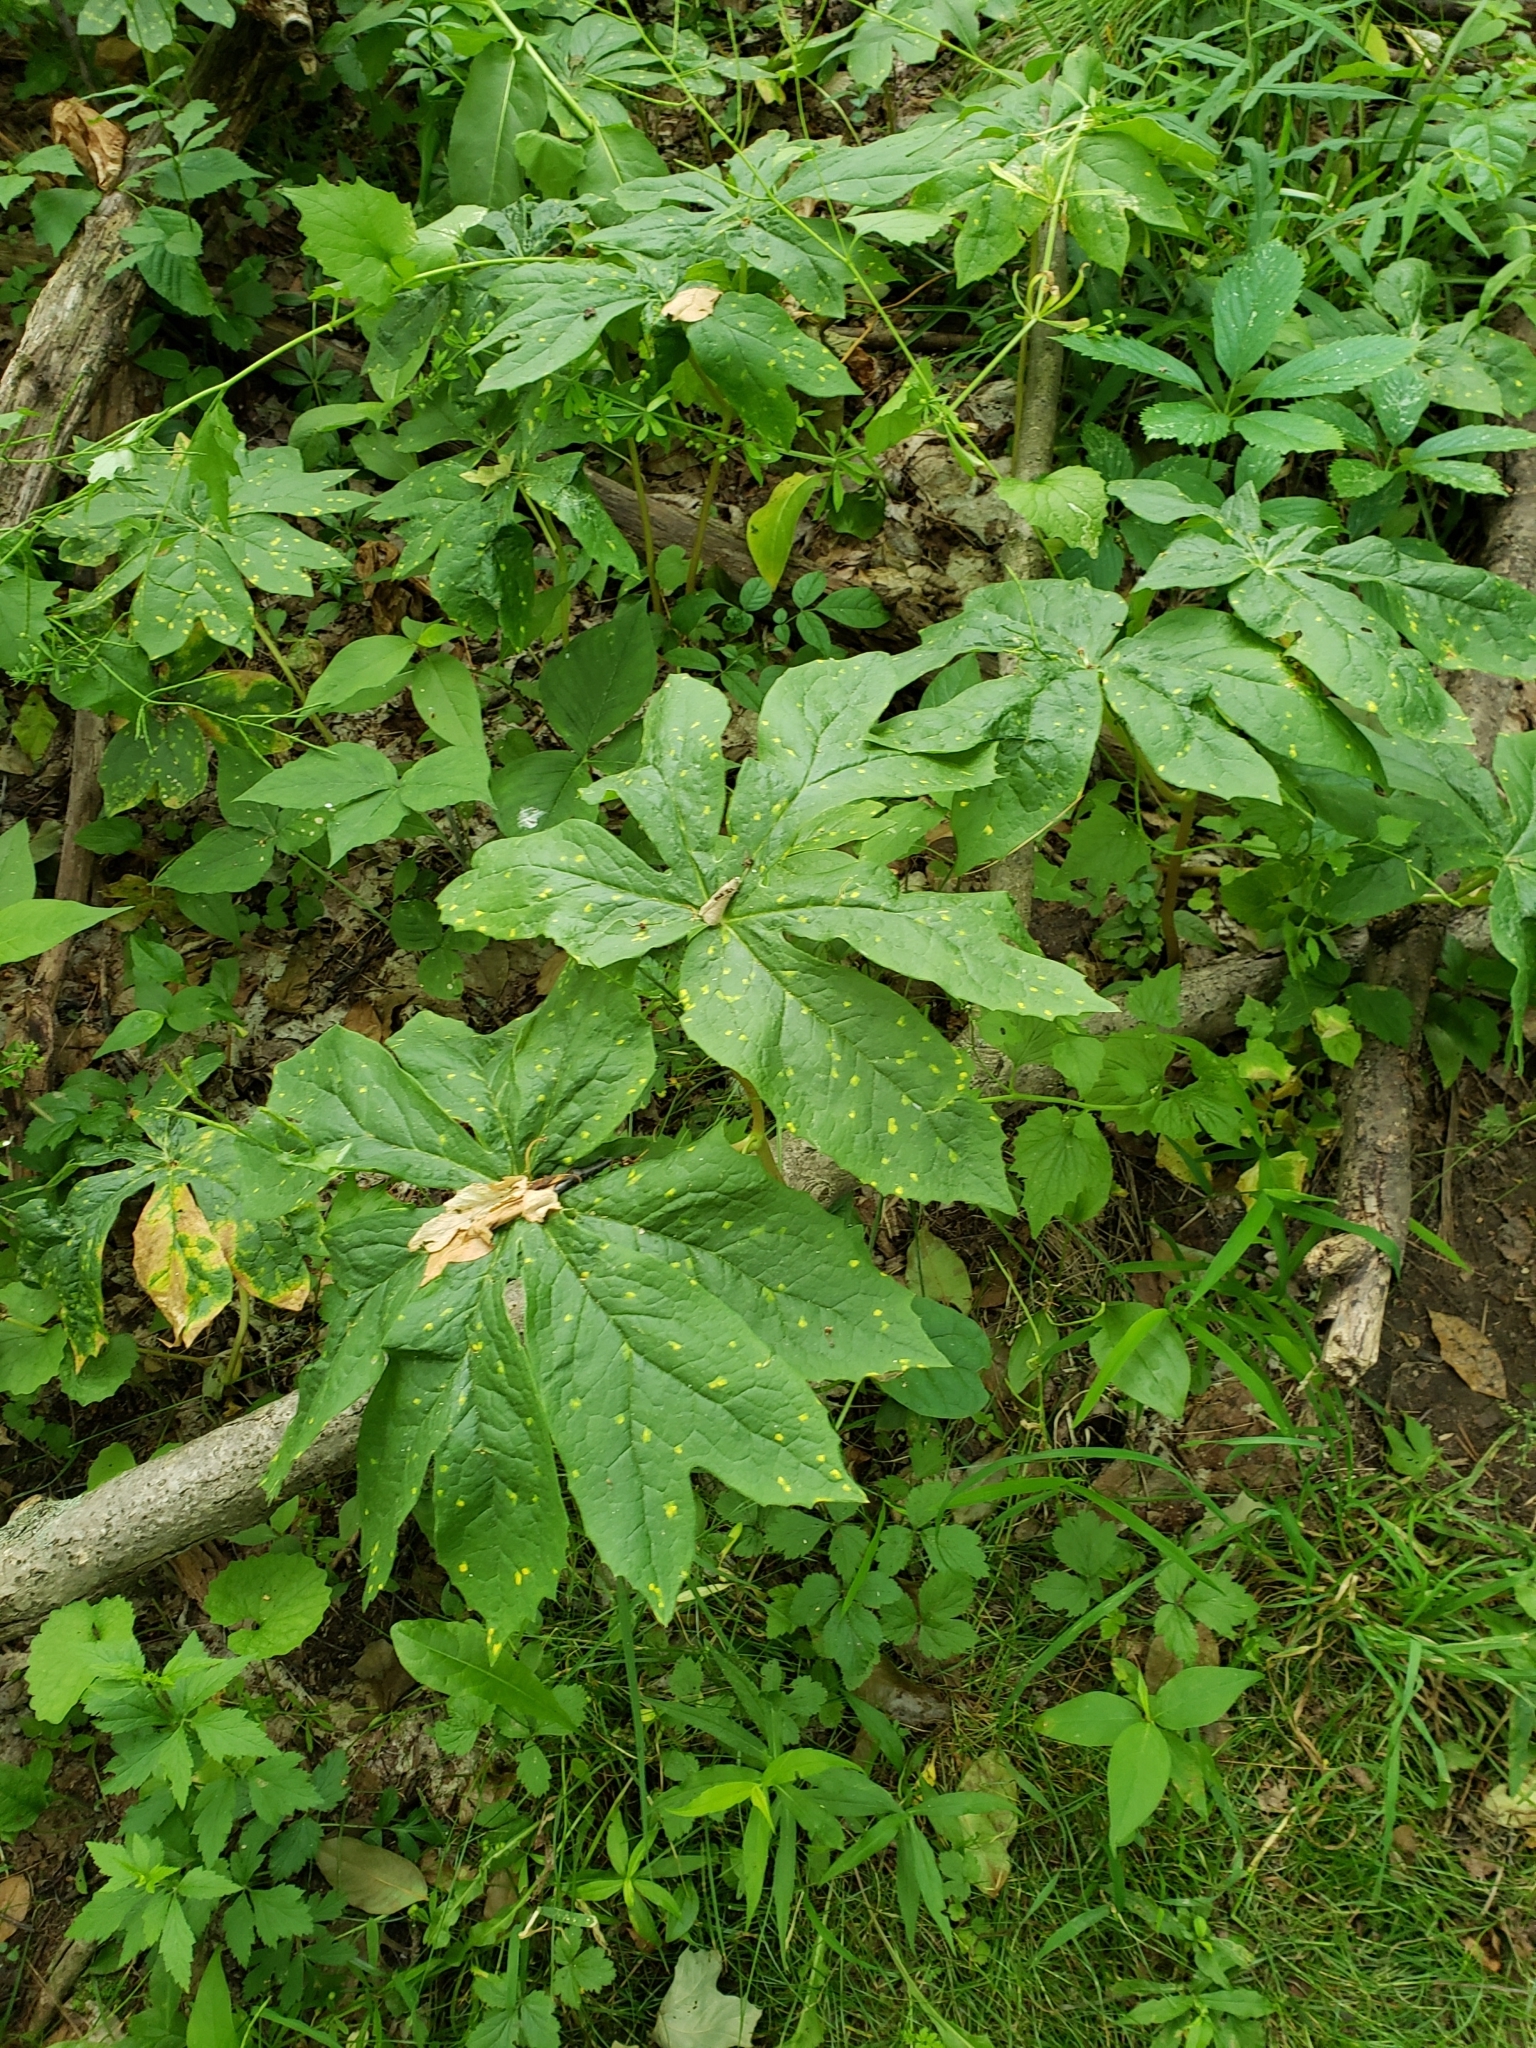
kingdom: Plantae
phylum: Tracheophyta
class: Magnoliopsida
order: Ranunculales
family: Berberidaceae
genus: Podophyllum
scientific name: Podophyllum peltatum
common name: Wild mandrake
